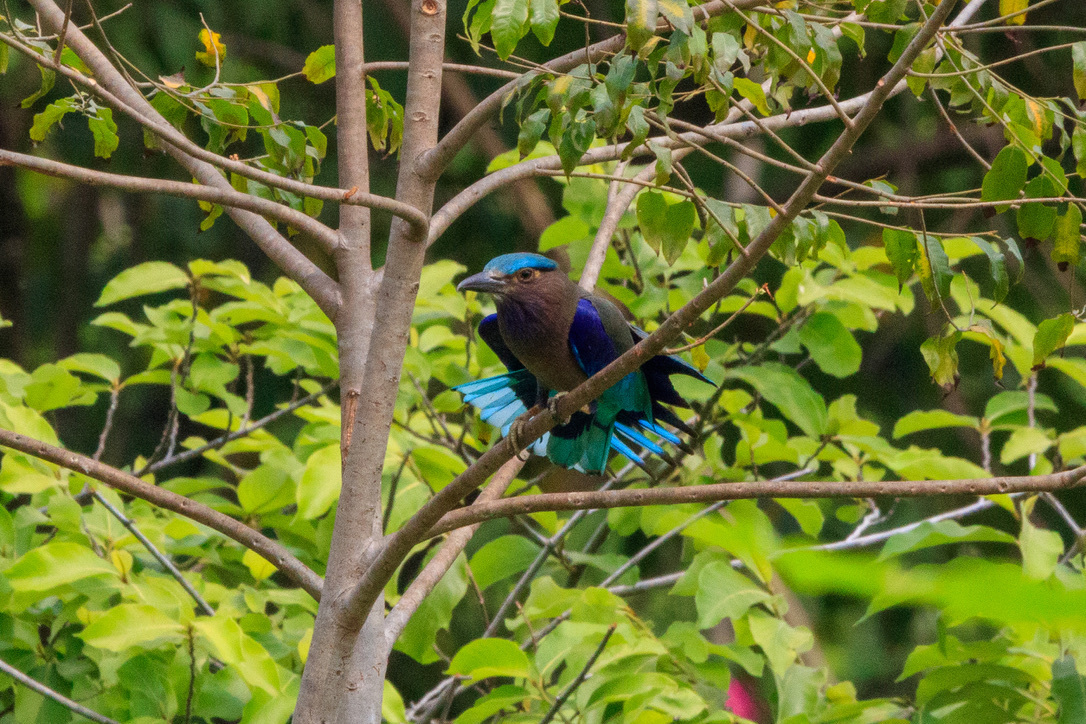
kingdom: Animalia
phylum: Chordata
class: Aves
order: Coraciiformes
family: Coraciidae
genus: Coracias
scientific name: Coracias affinis
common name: Indochinese roller
